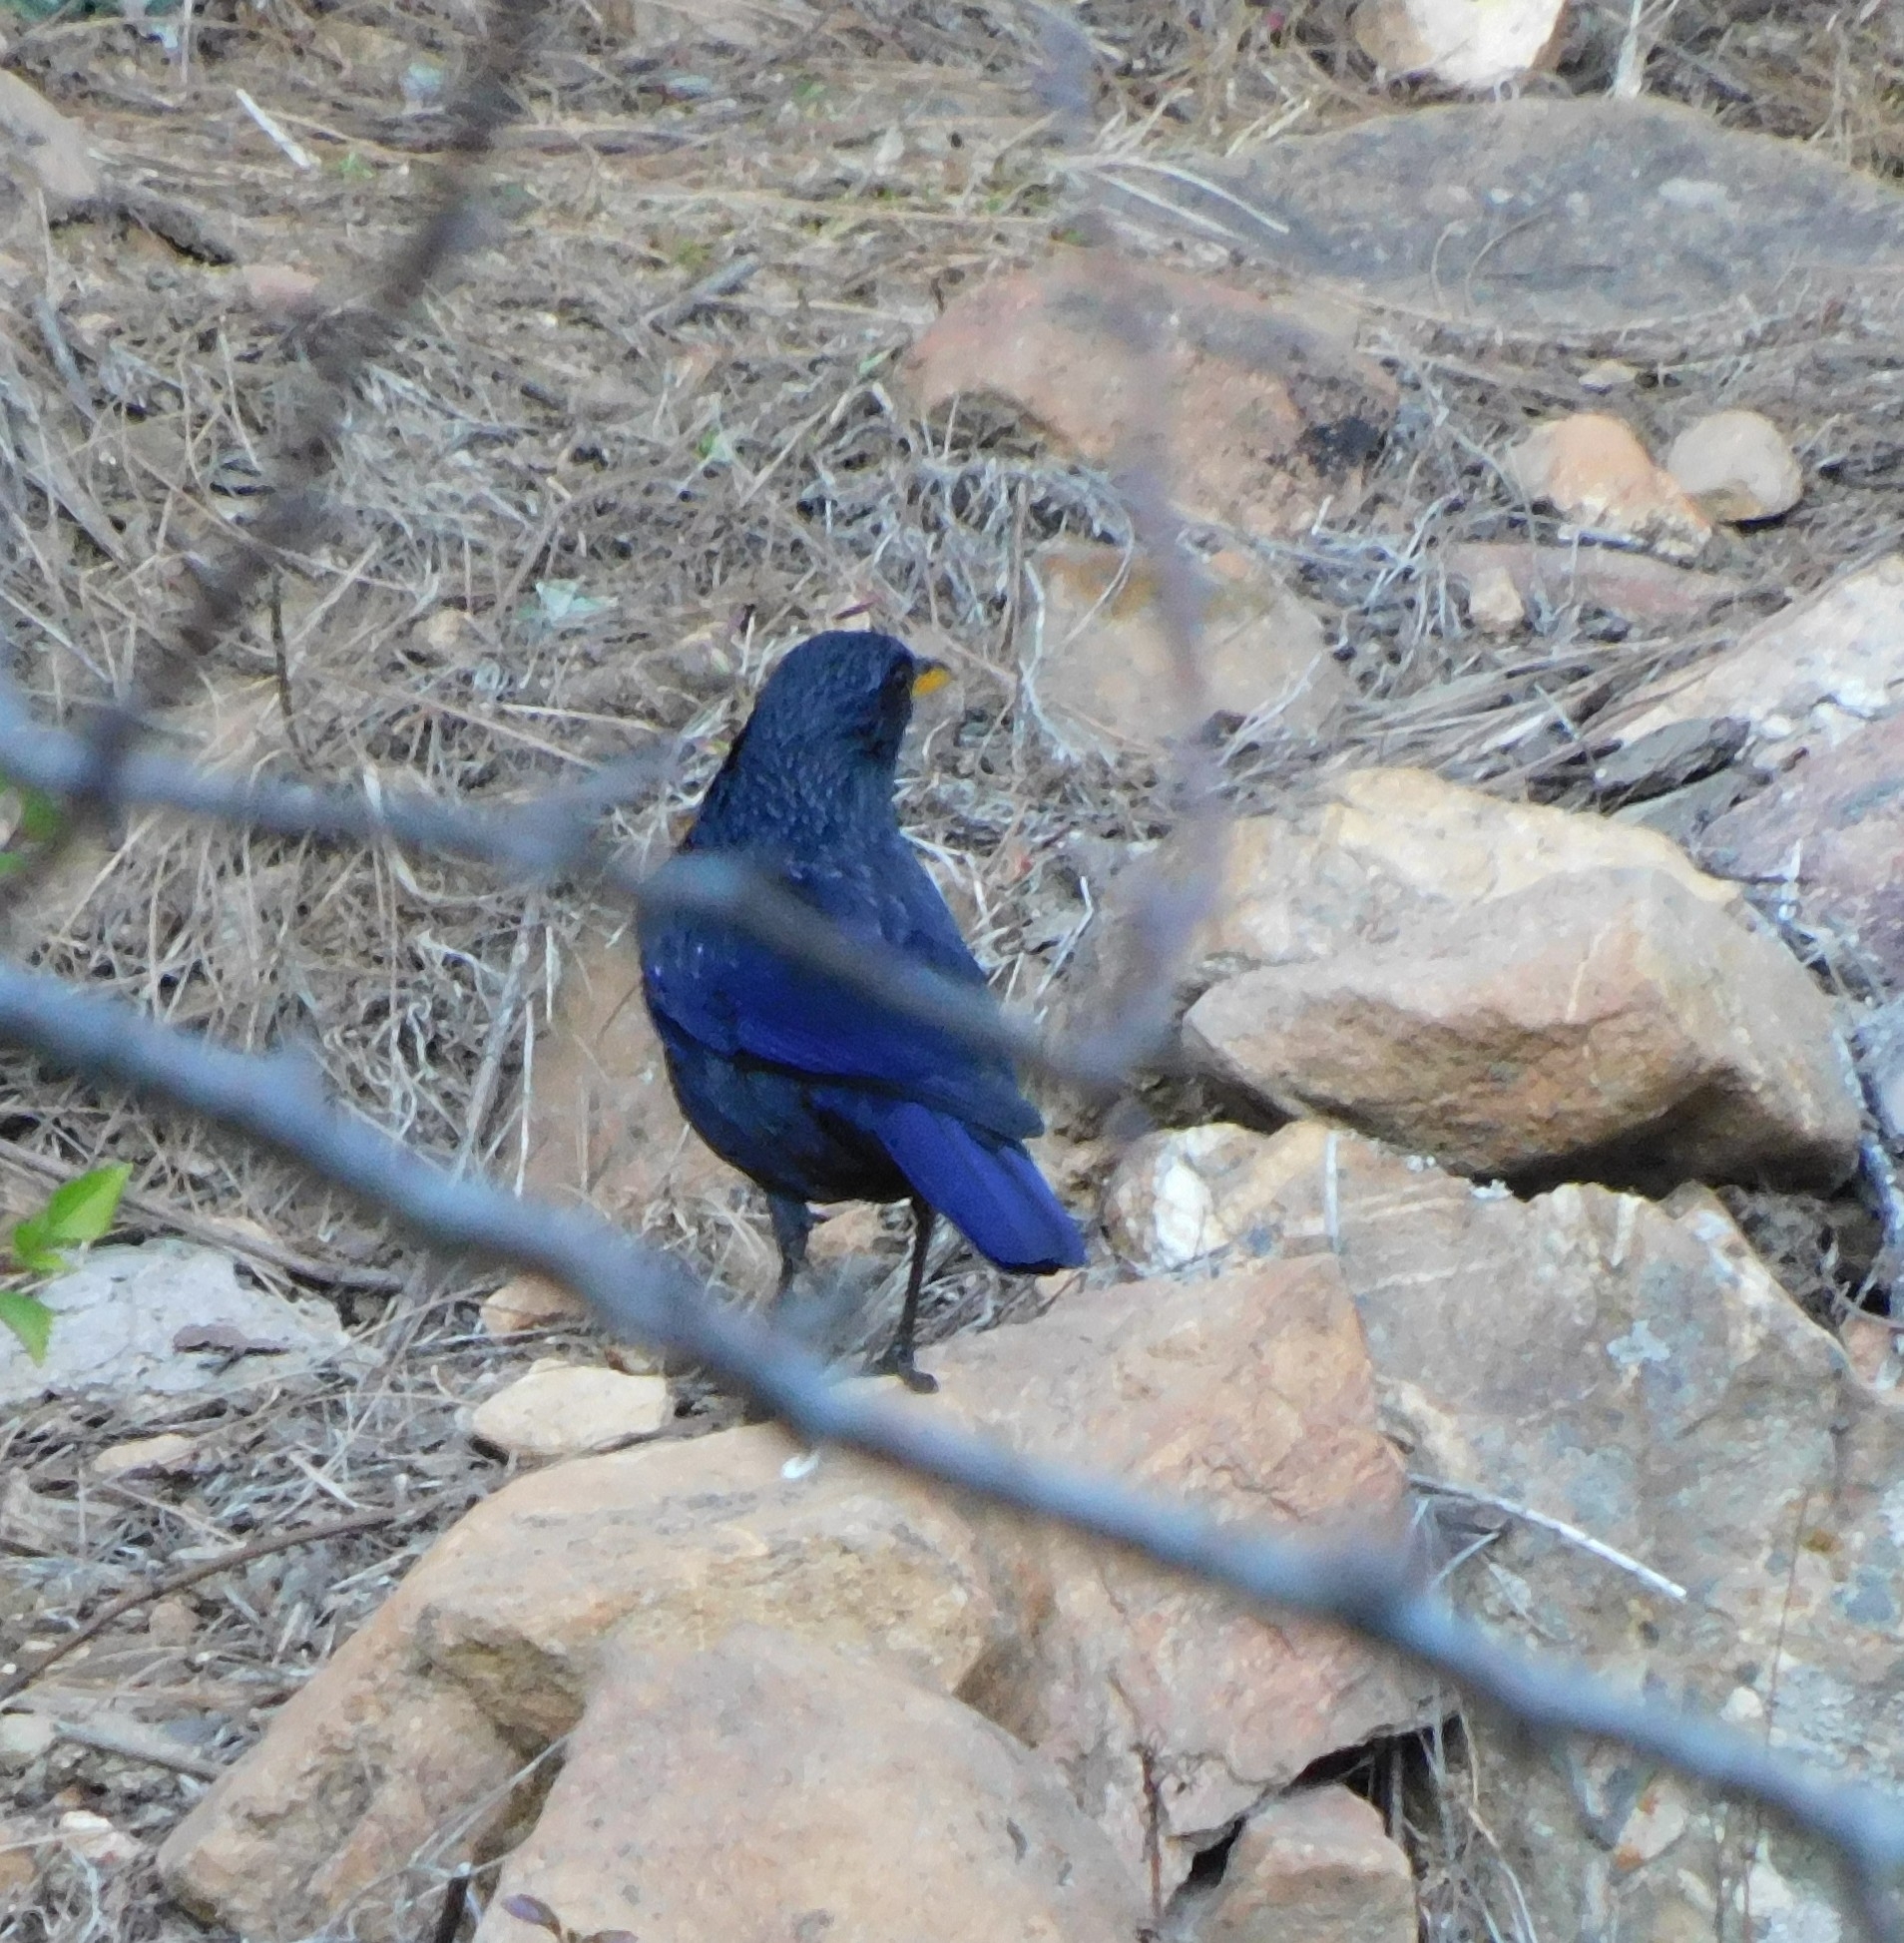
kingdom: Animalia
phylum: Chordata
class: Aves
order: Passeriformes
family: Muscicapidae
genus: Myophonus
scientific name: Myophonus caeruleus
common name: Blue whistling-thrush
